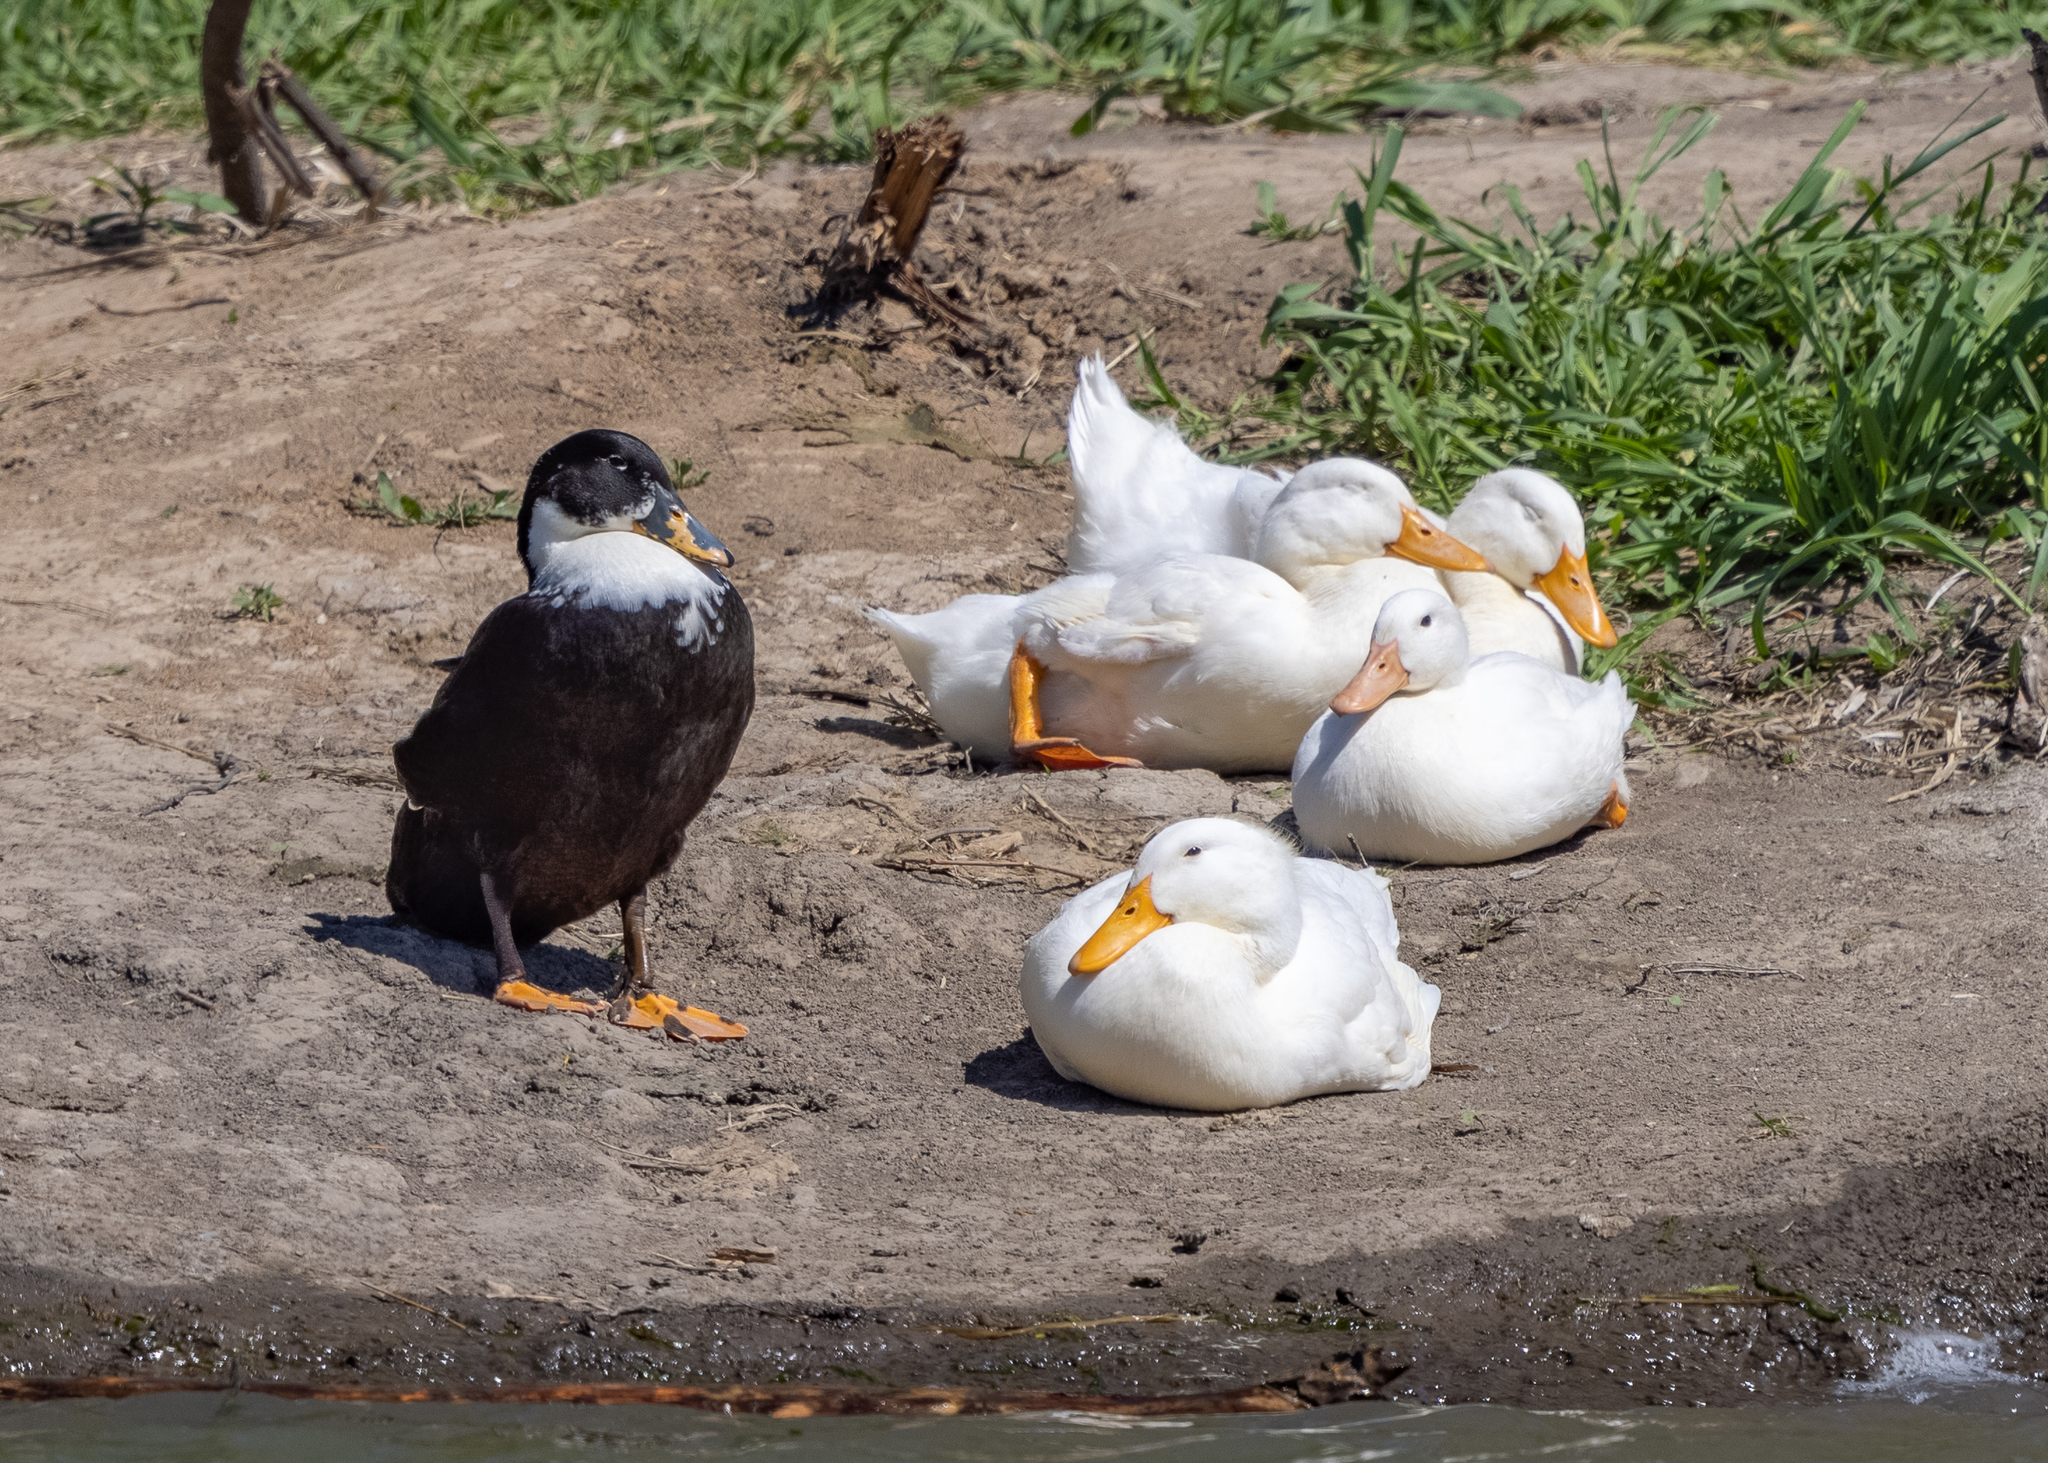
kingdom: Animalia
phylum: Chordata
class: Aves
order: Anseriformes
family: Anatidae
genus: Anas
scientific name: Anas platyrhynchos
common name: Mallard
